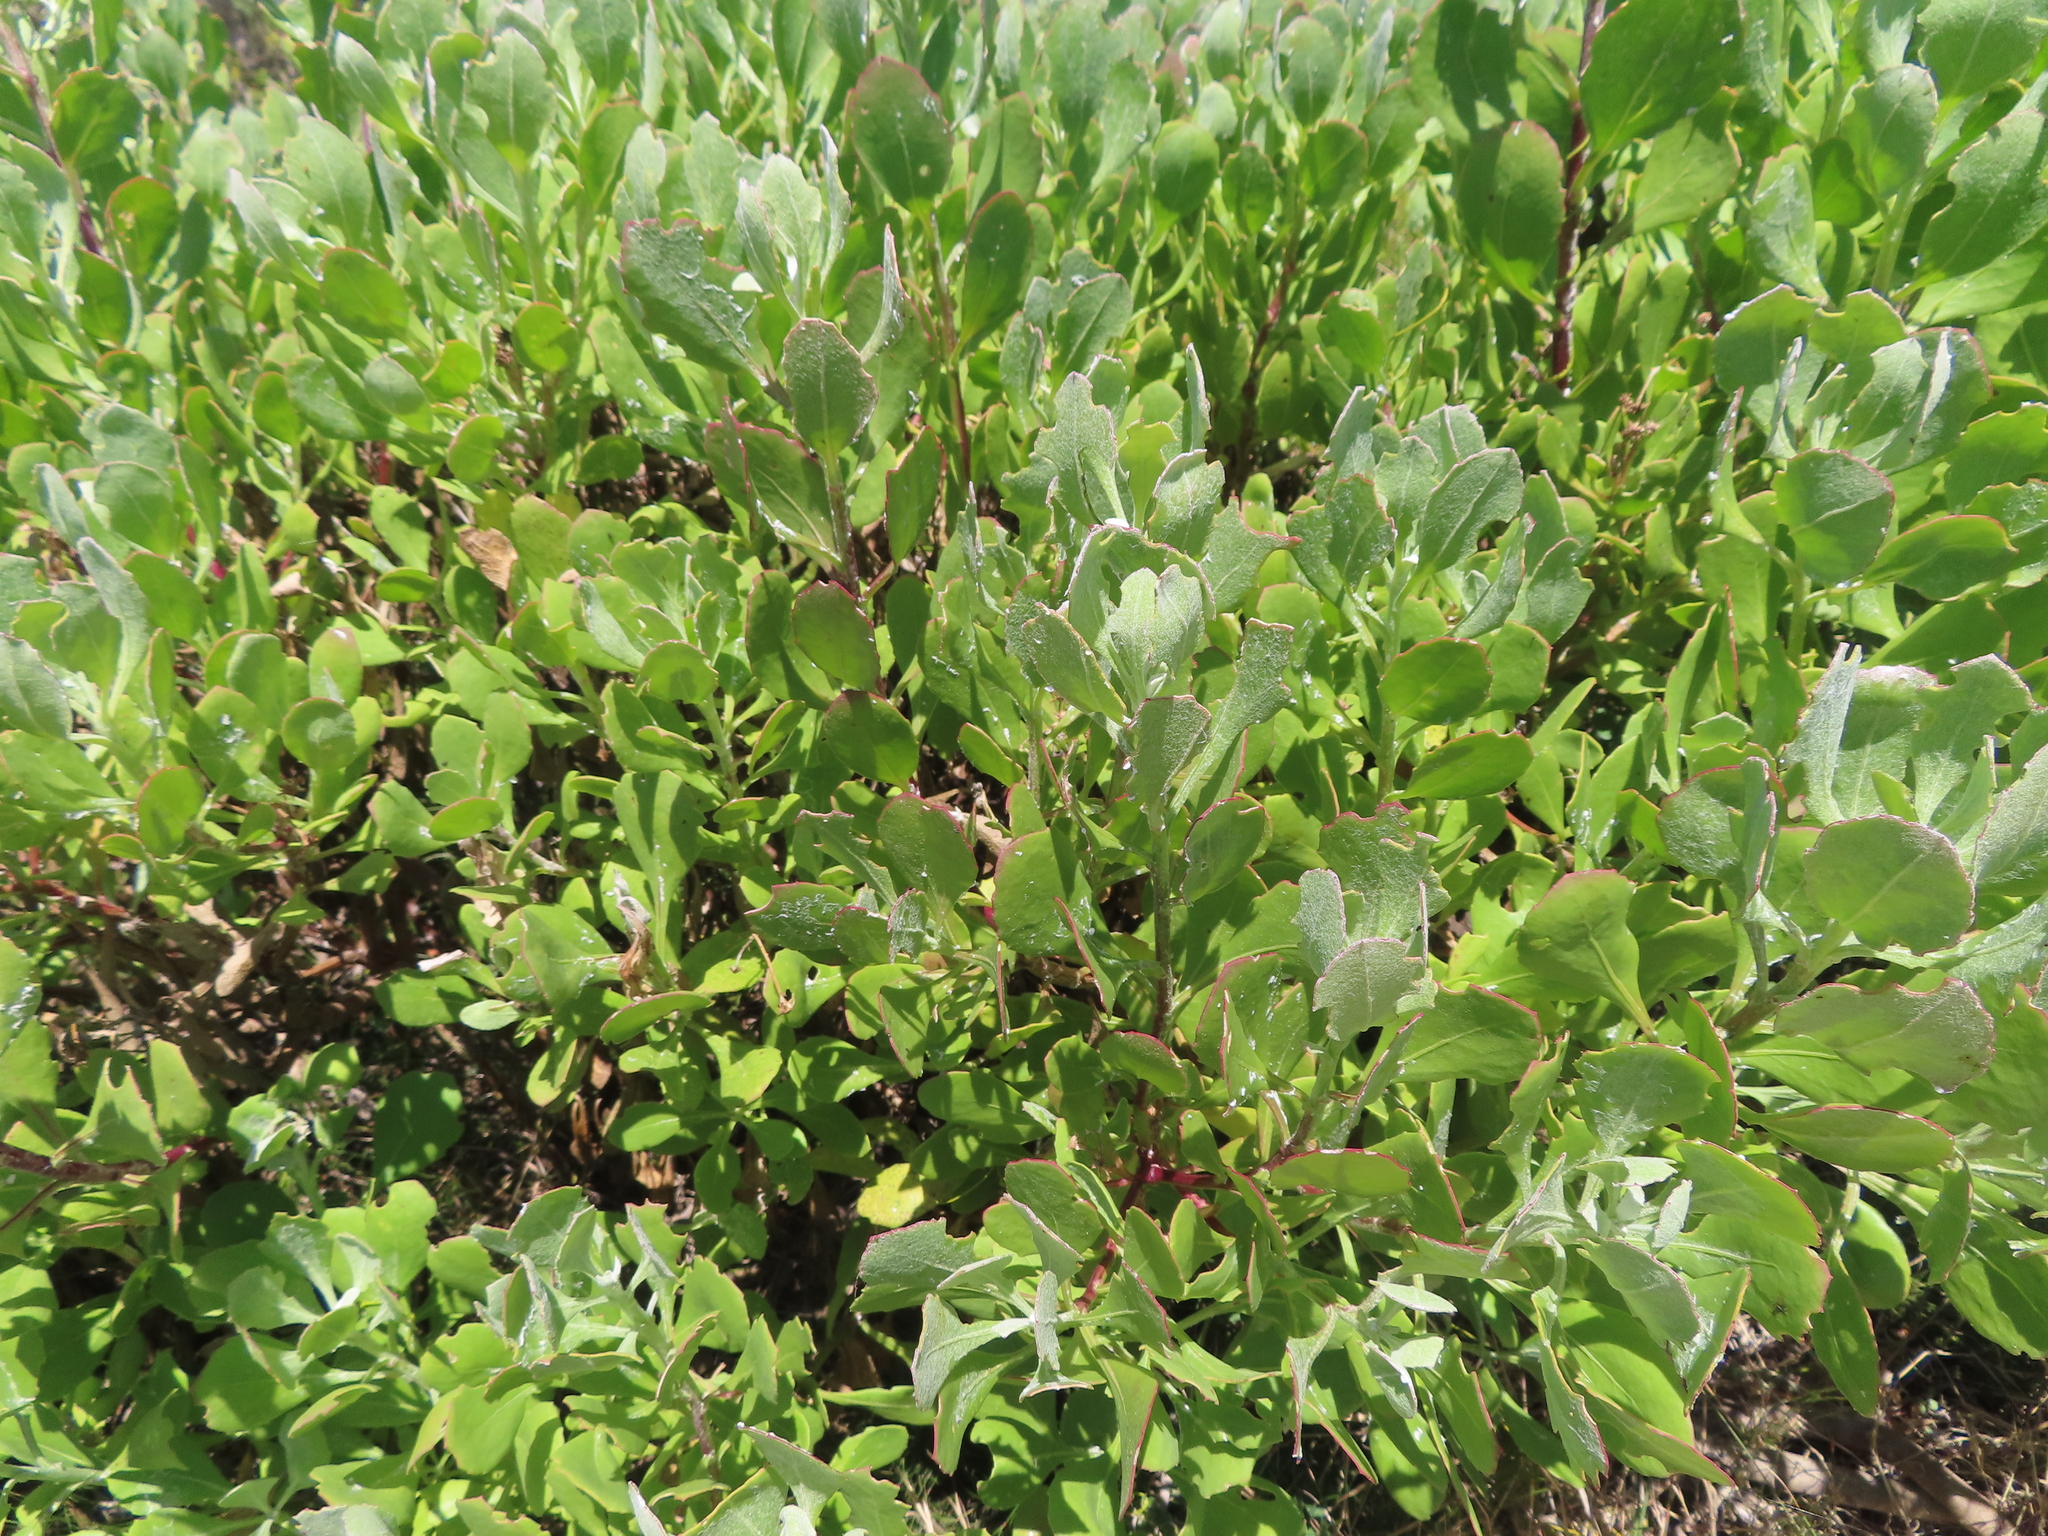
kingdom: Plantae
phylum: Tracheophyta
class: Magnoliopsida
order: Asterales
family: Asteraceae
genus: Osteospermum
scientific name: Osteospermum moniliferum
